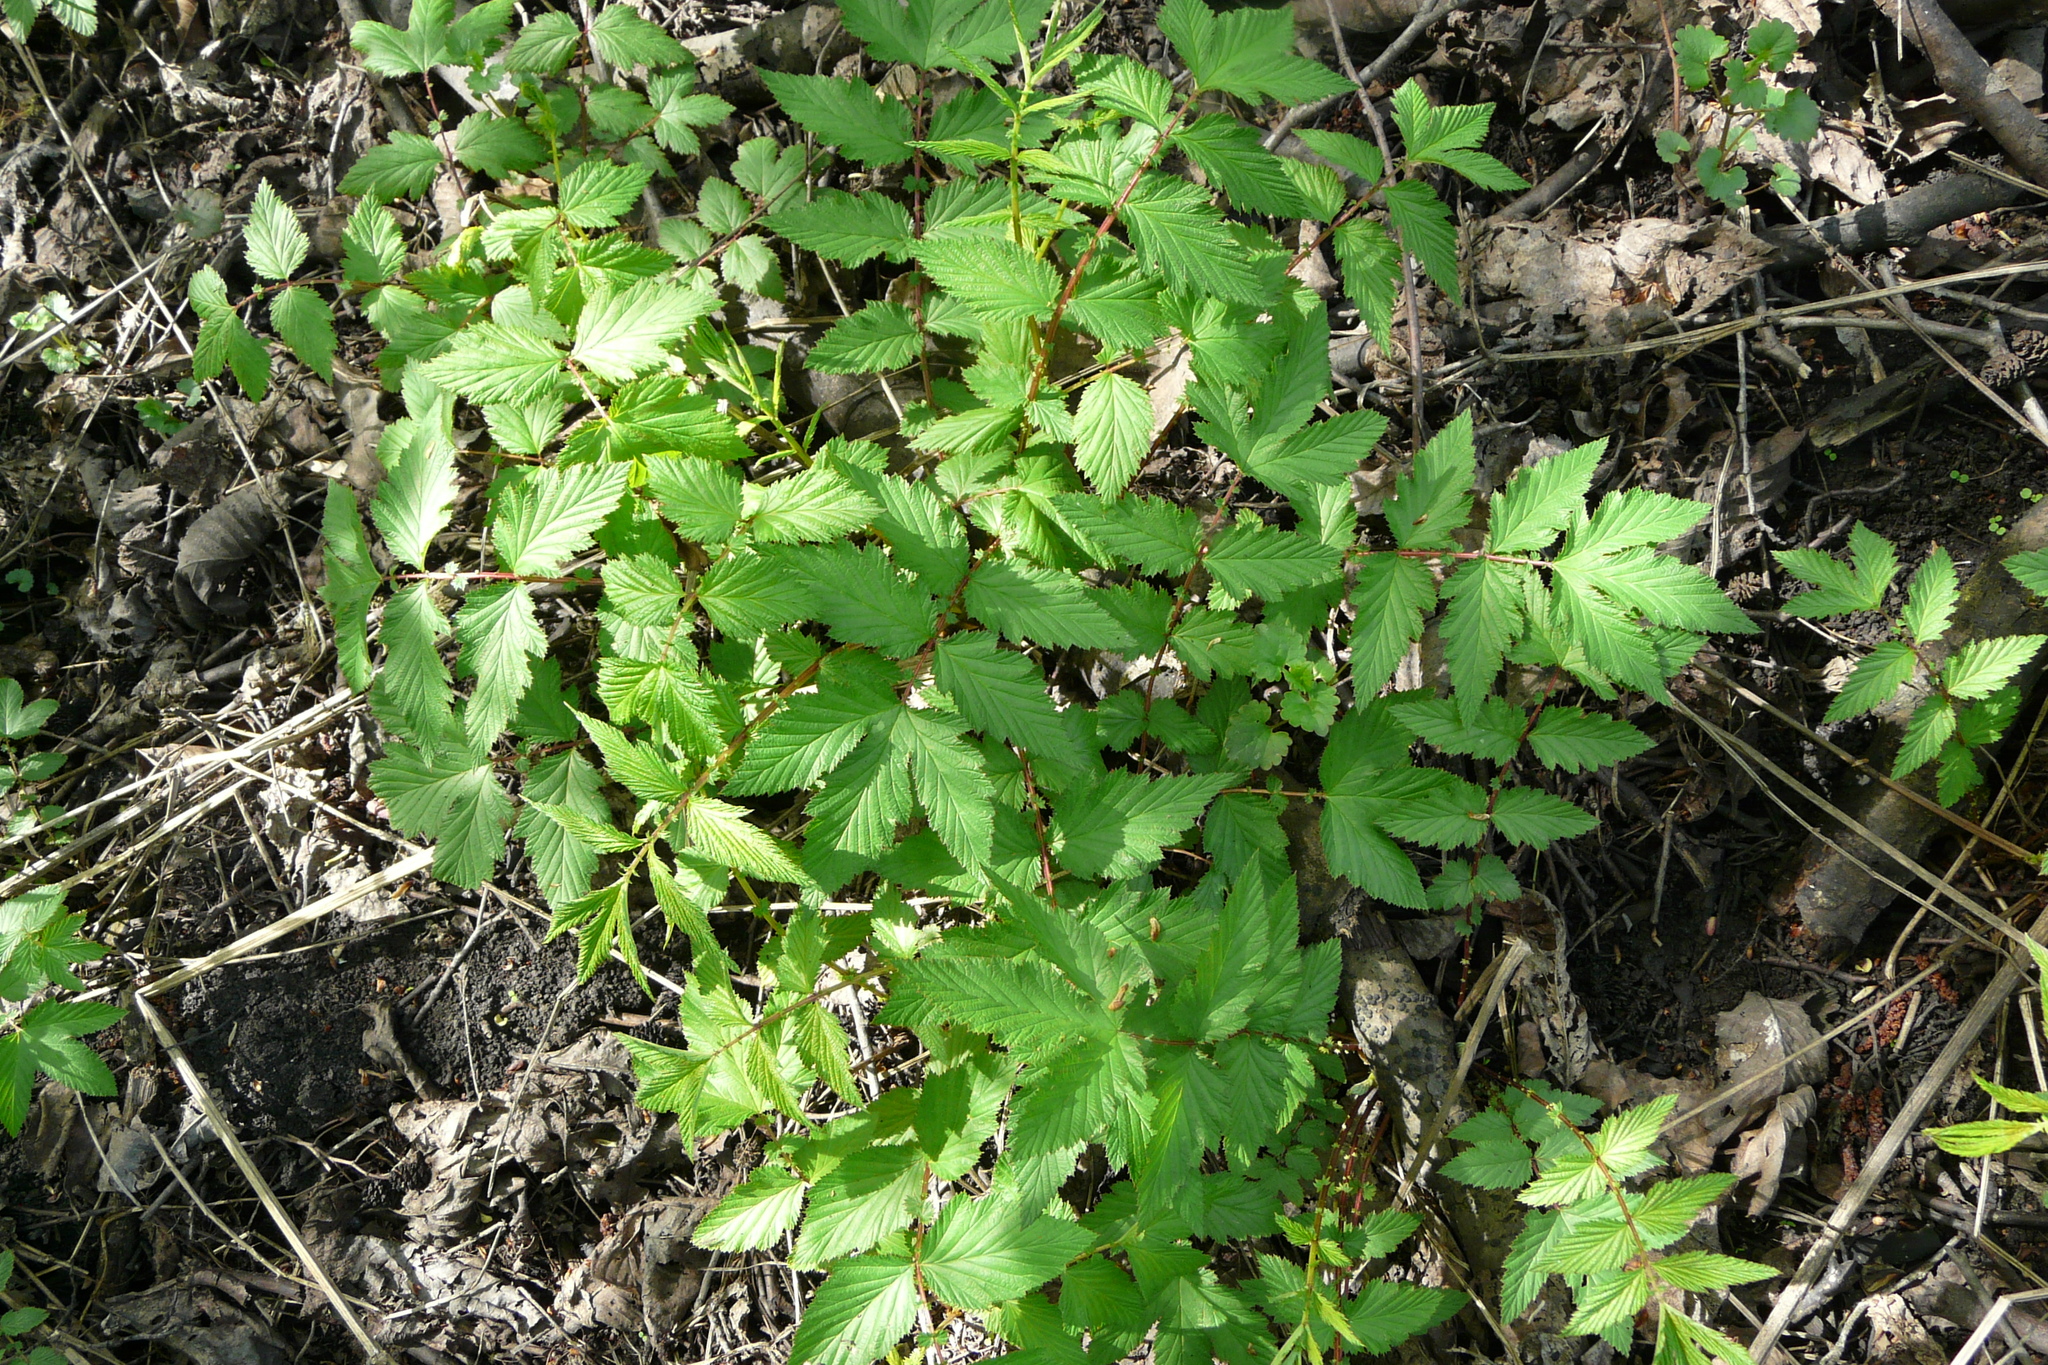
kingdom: Plantae
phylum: Tracheophyta
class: Magnoliopsida
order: Rosales
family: Rosaceae
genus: Filipendula
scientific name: Filipendula ulmaria
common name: Meadowsweet
